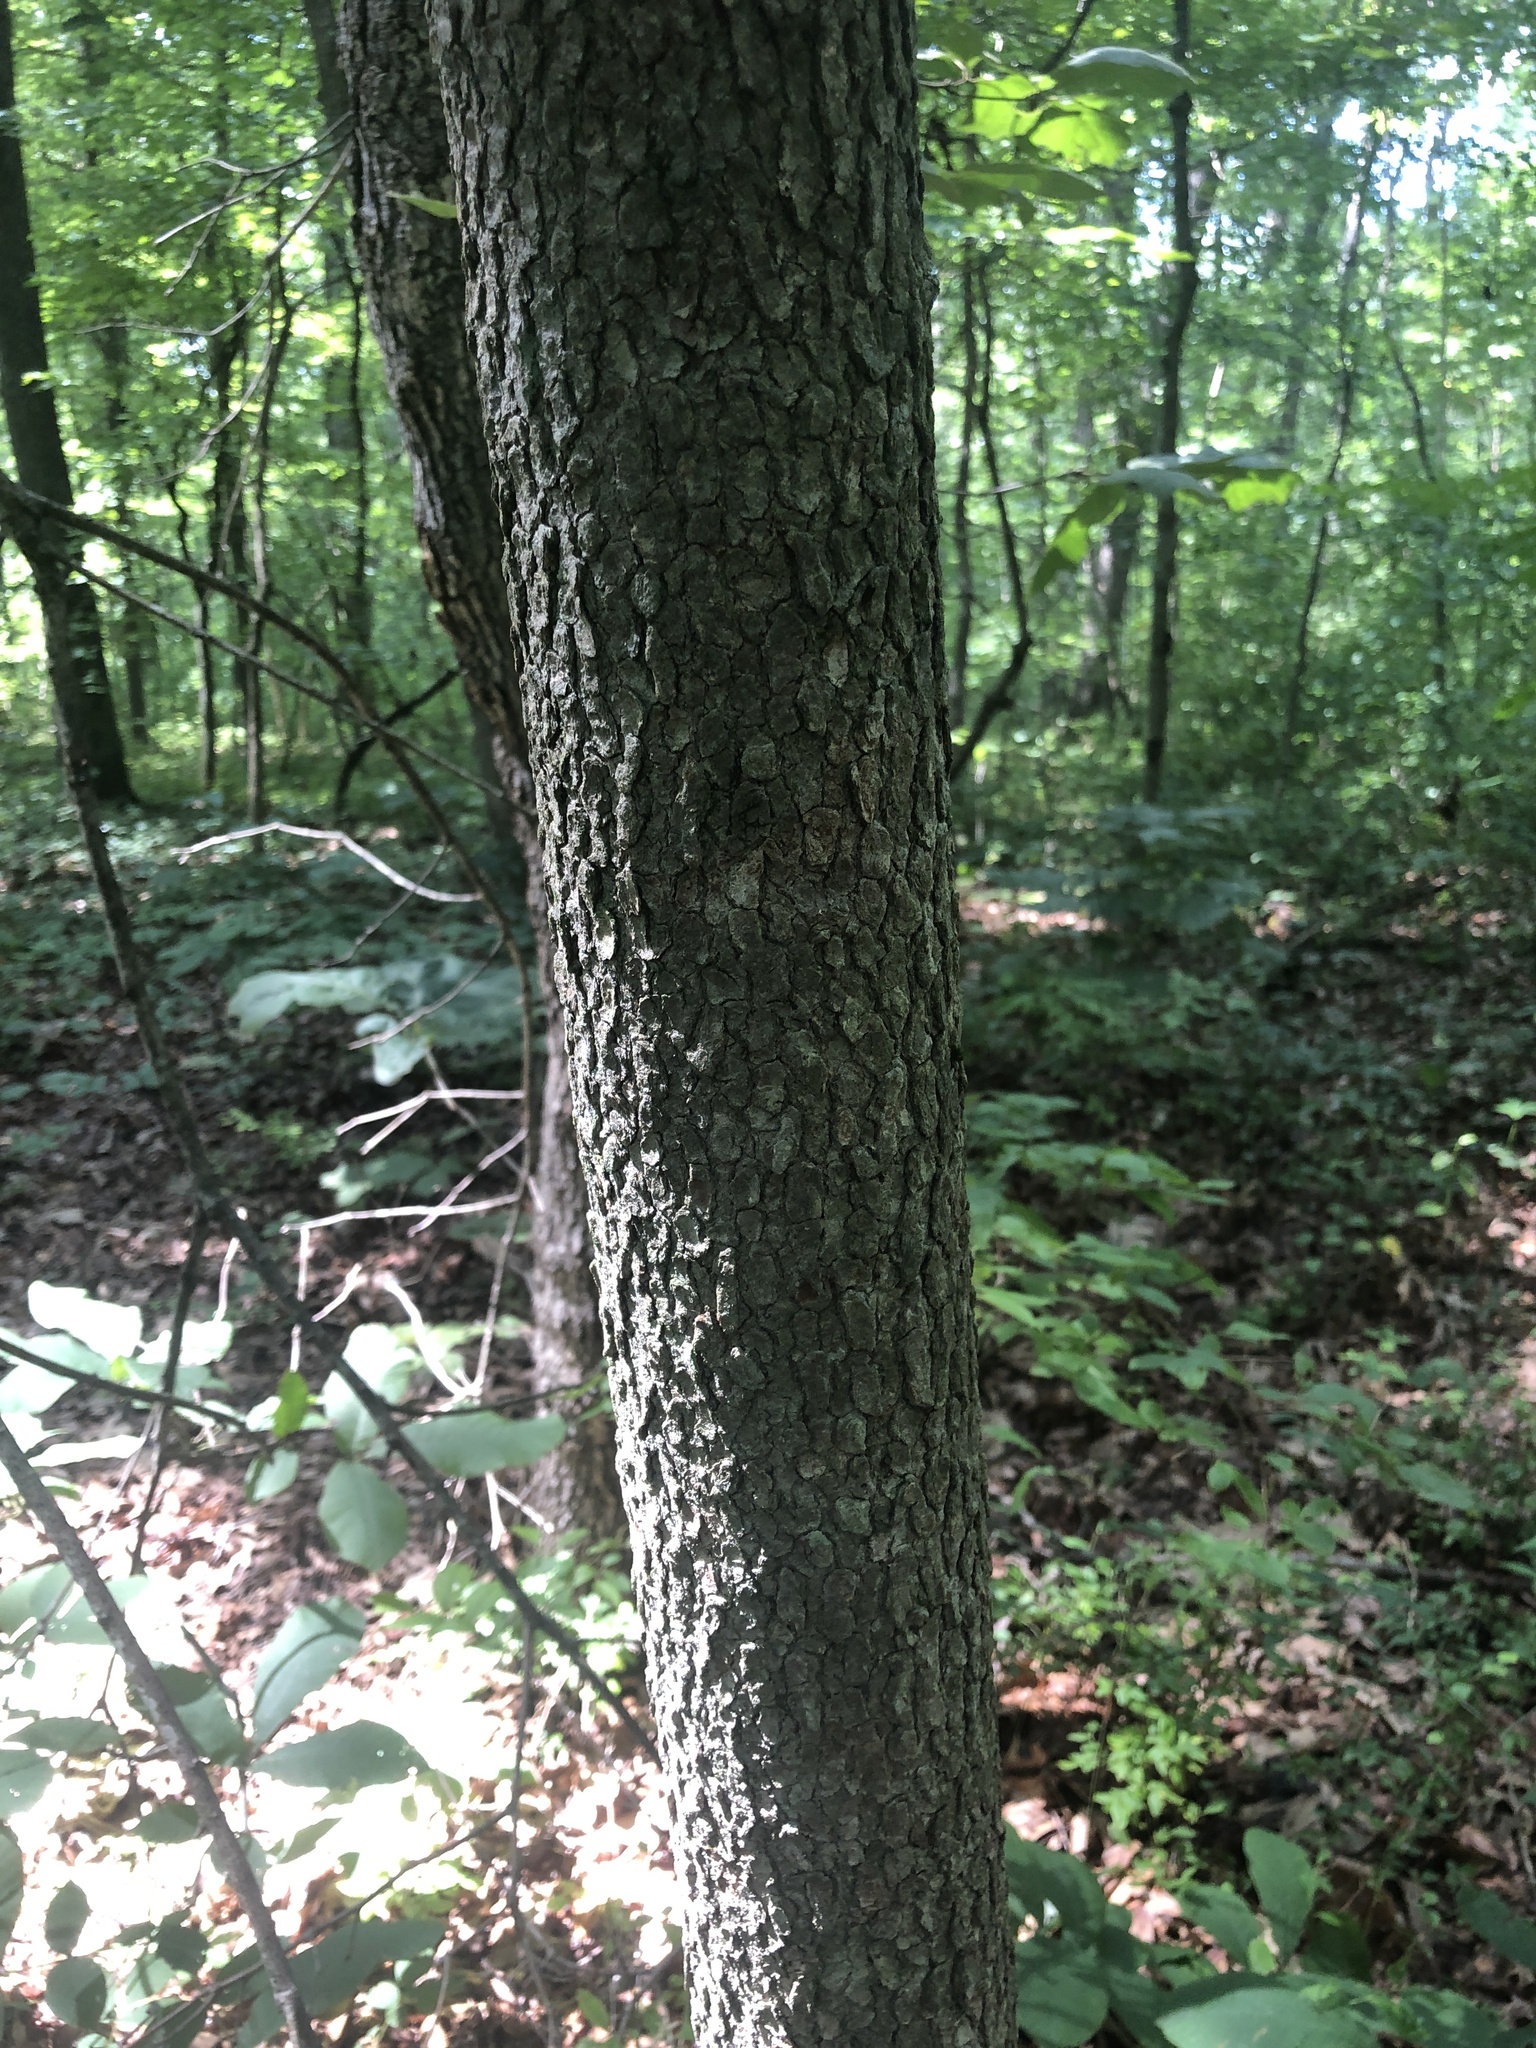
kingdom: Plantae
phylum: Tracheophyta
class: Magnoliopsida
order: Cornales
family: Cornaceae
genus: Cornus
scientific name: Cornus florida
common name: Flowering dogwood
